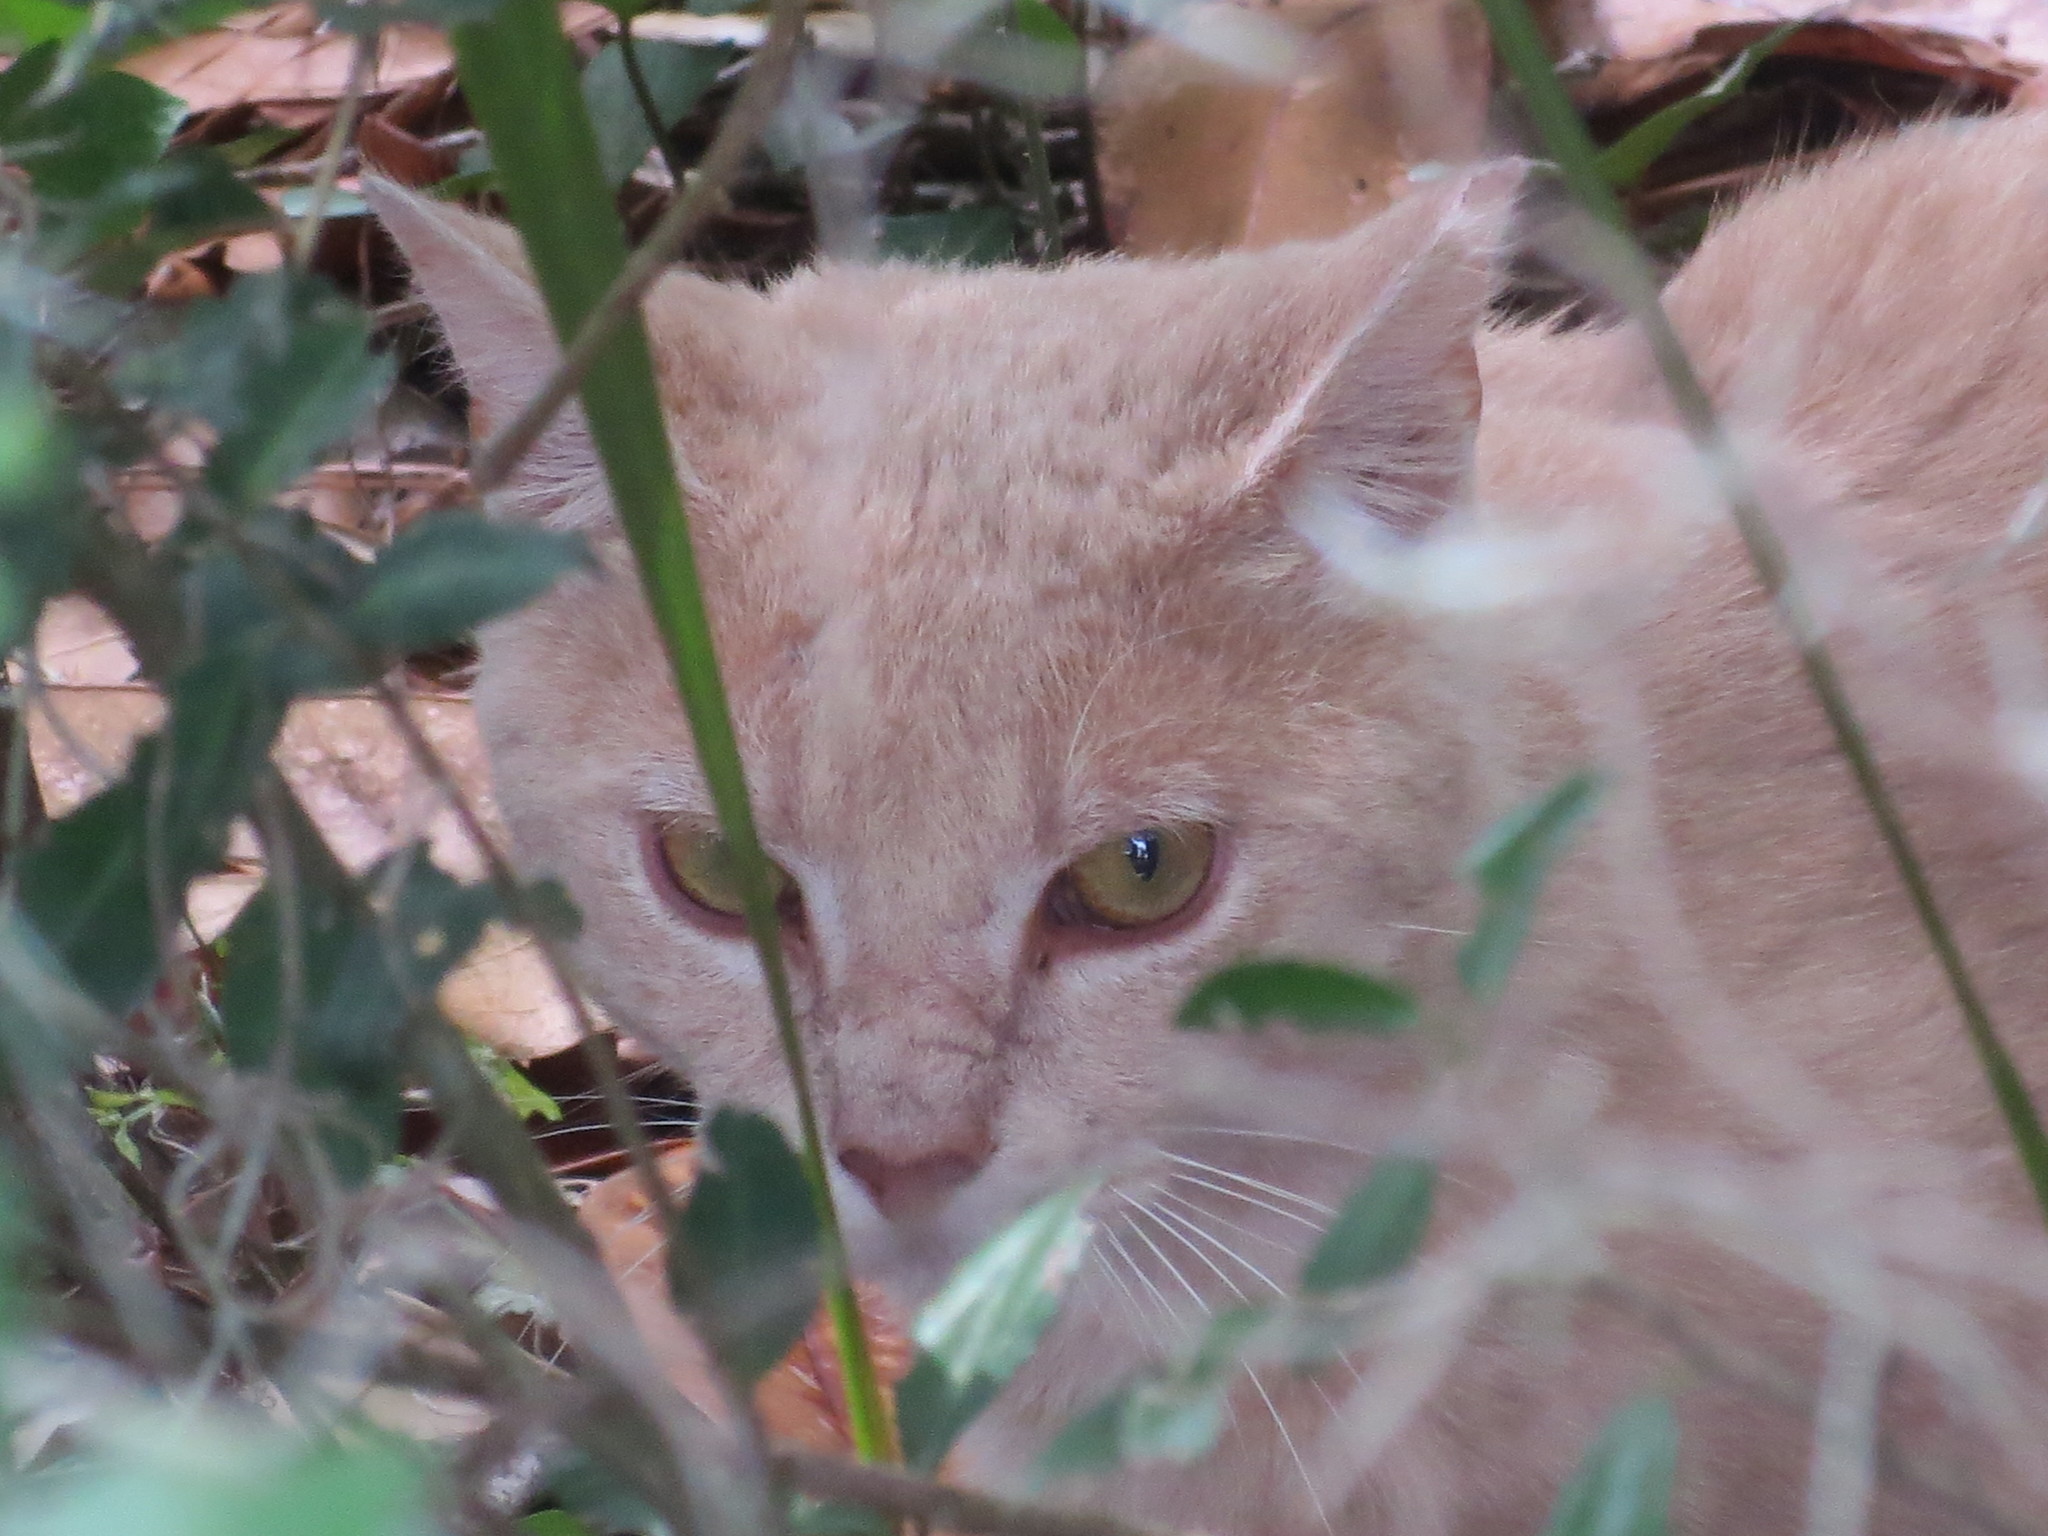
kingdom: Animalia
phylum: Chordata
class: Mammalia
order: Carnivora
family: Felidae
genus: Felis
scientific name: Felis catus
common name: Domestic cat
